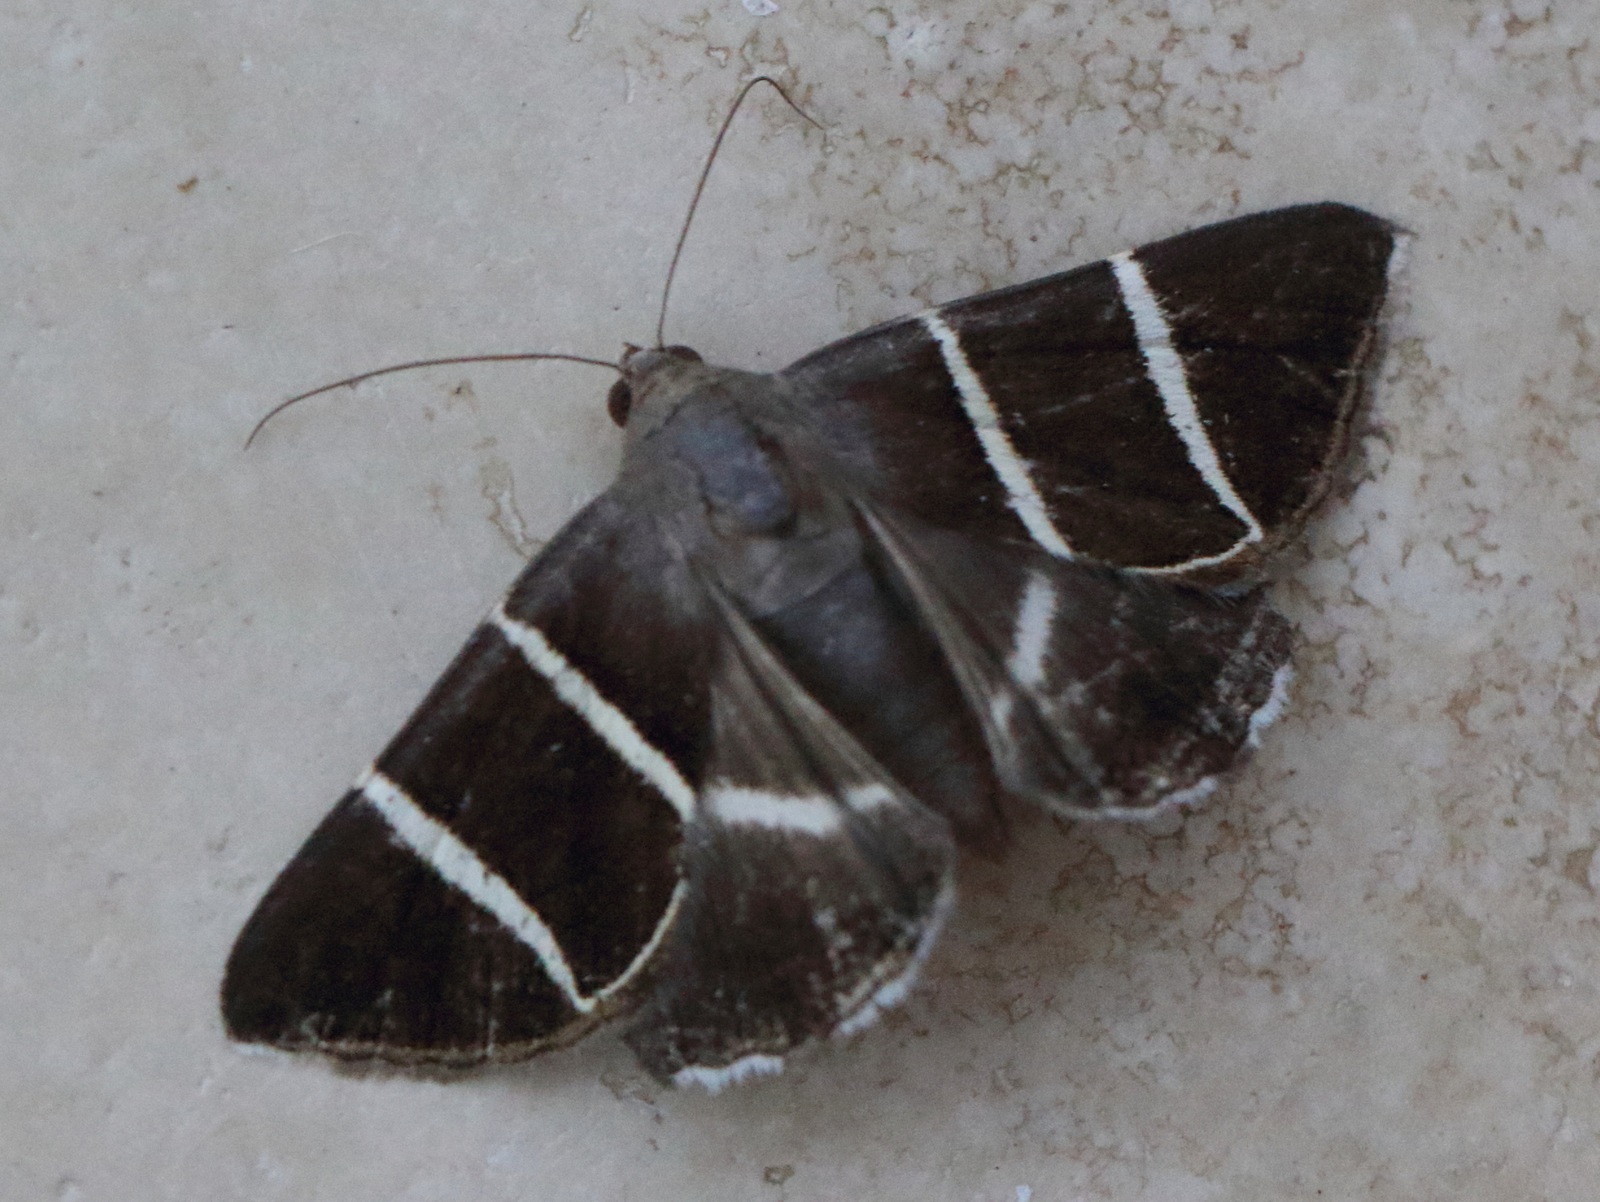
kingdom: Animalia
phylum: Arthropoda
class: Insecta
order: Lepidoptera
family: Erebidae
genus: Grammodes
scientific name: Grammodes justa
